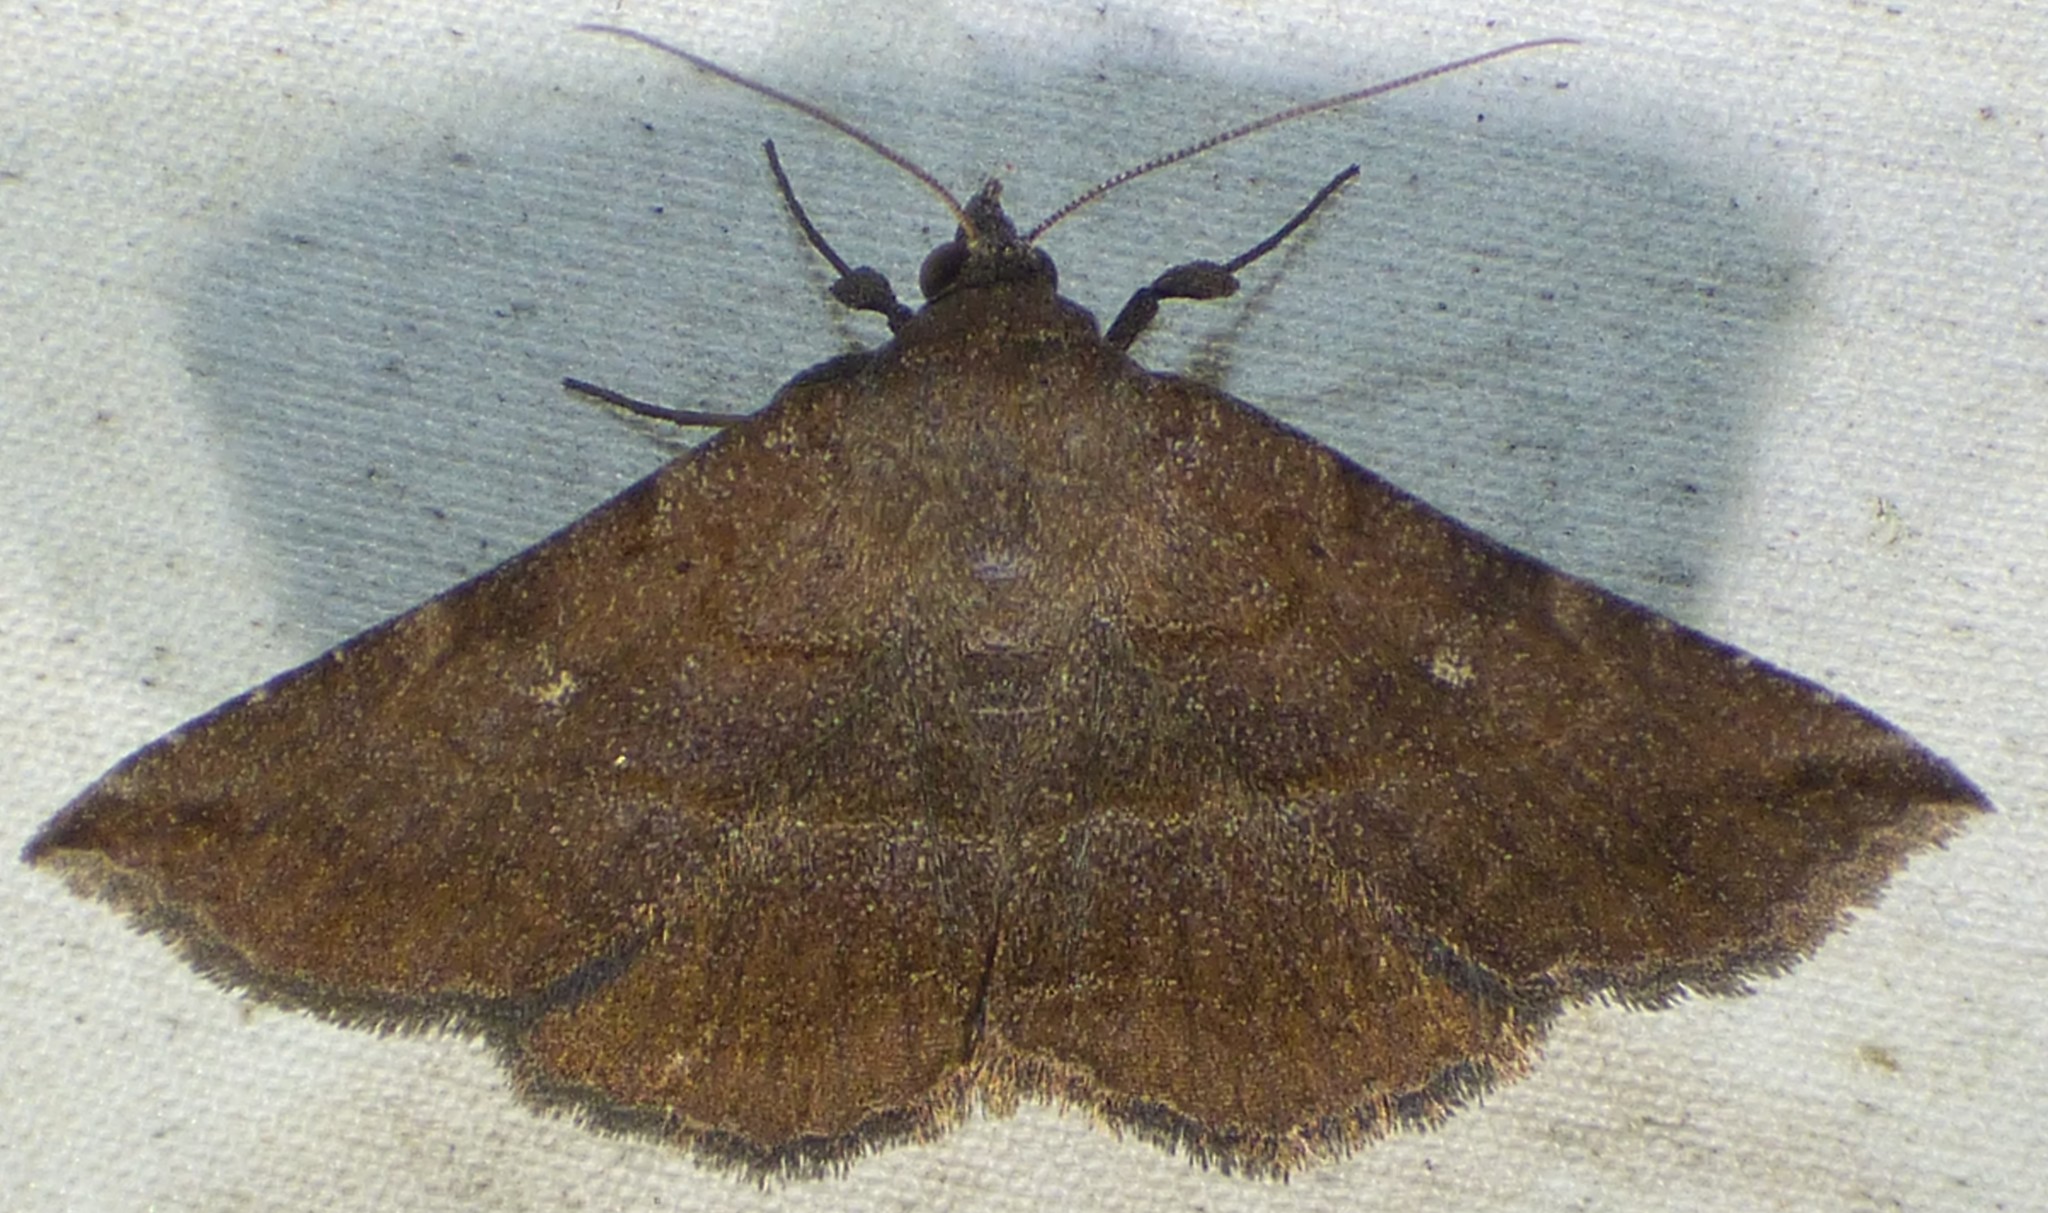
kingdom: Animalia
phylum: Arthropoda
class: Insecta
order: Lepidoptera
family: Erebidae
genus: Lesmone
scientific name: Lesmone detrahens
